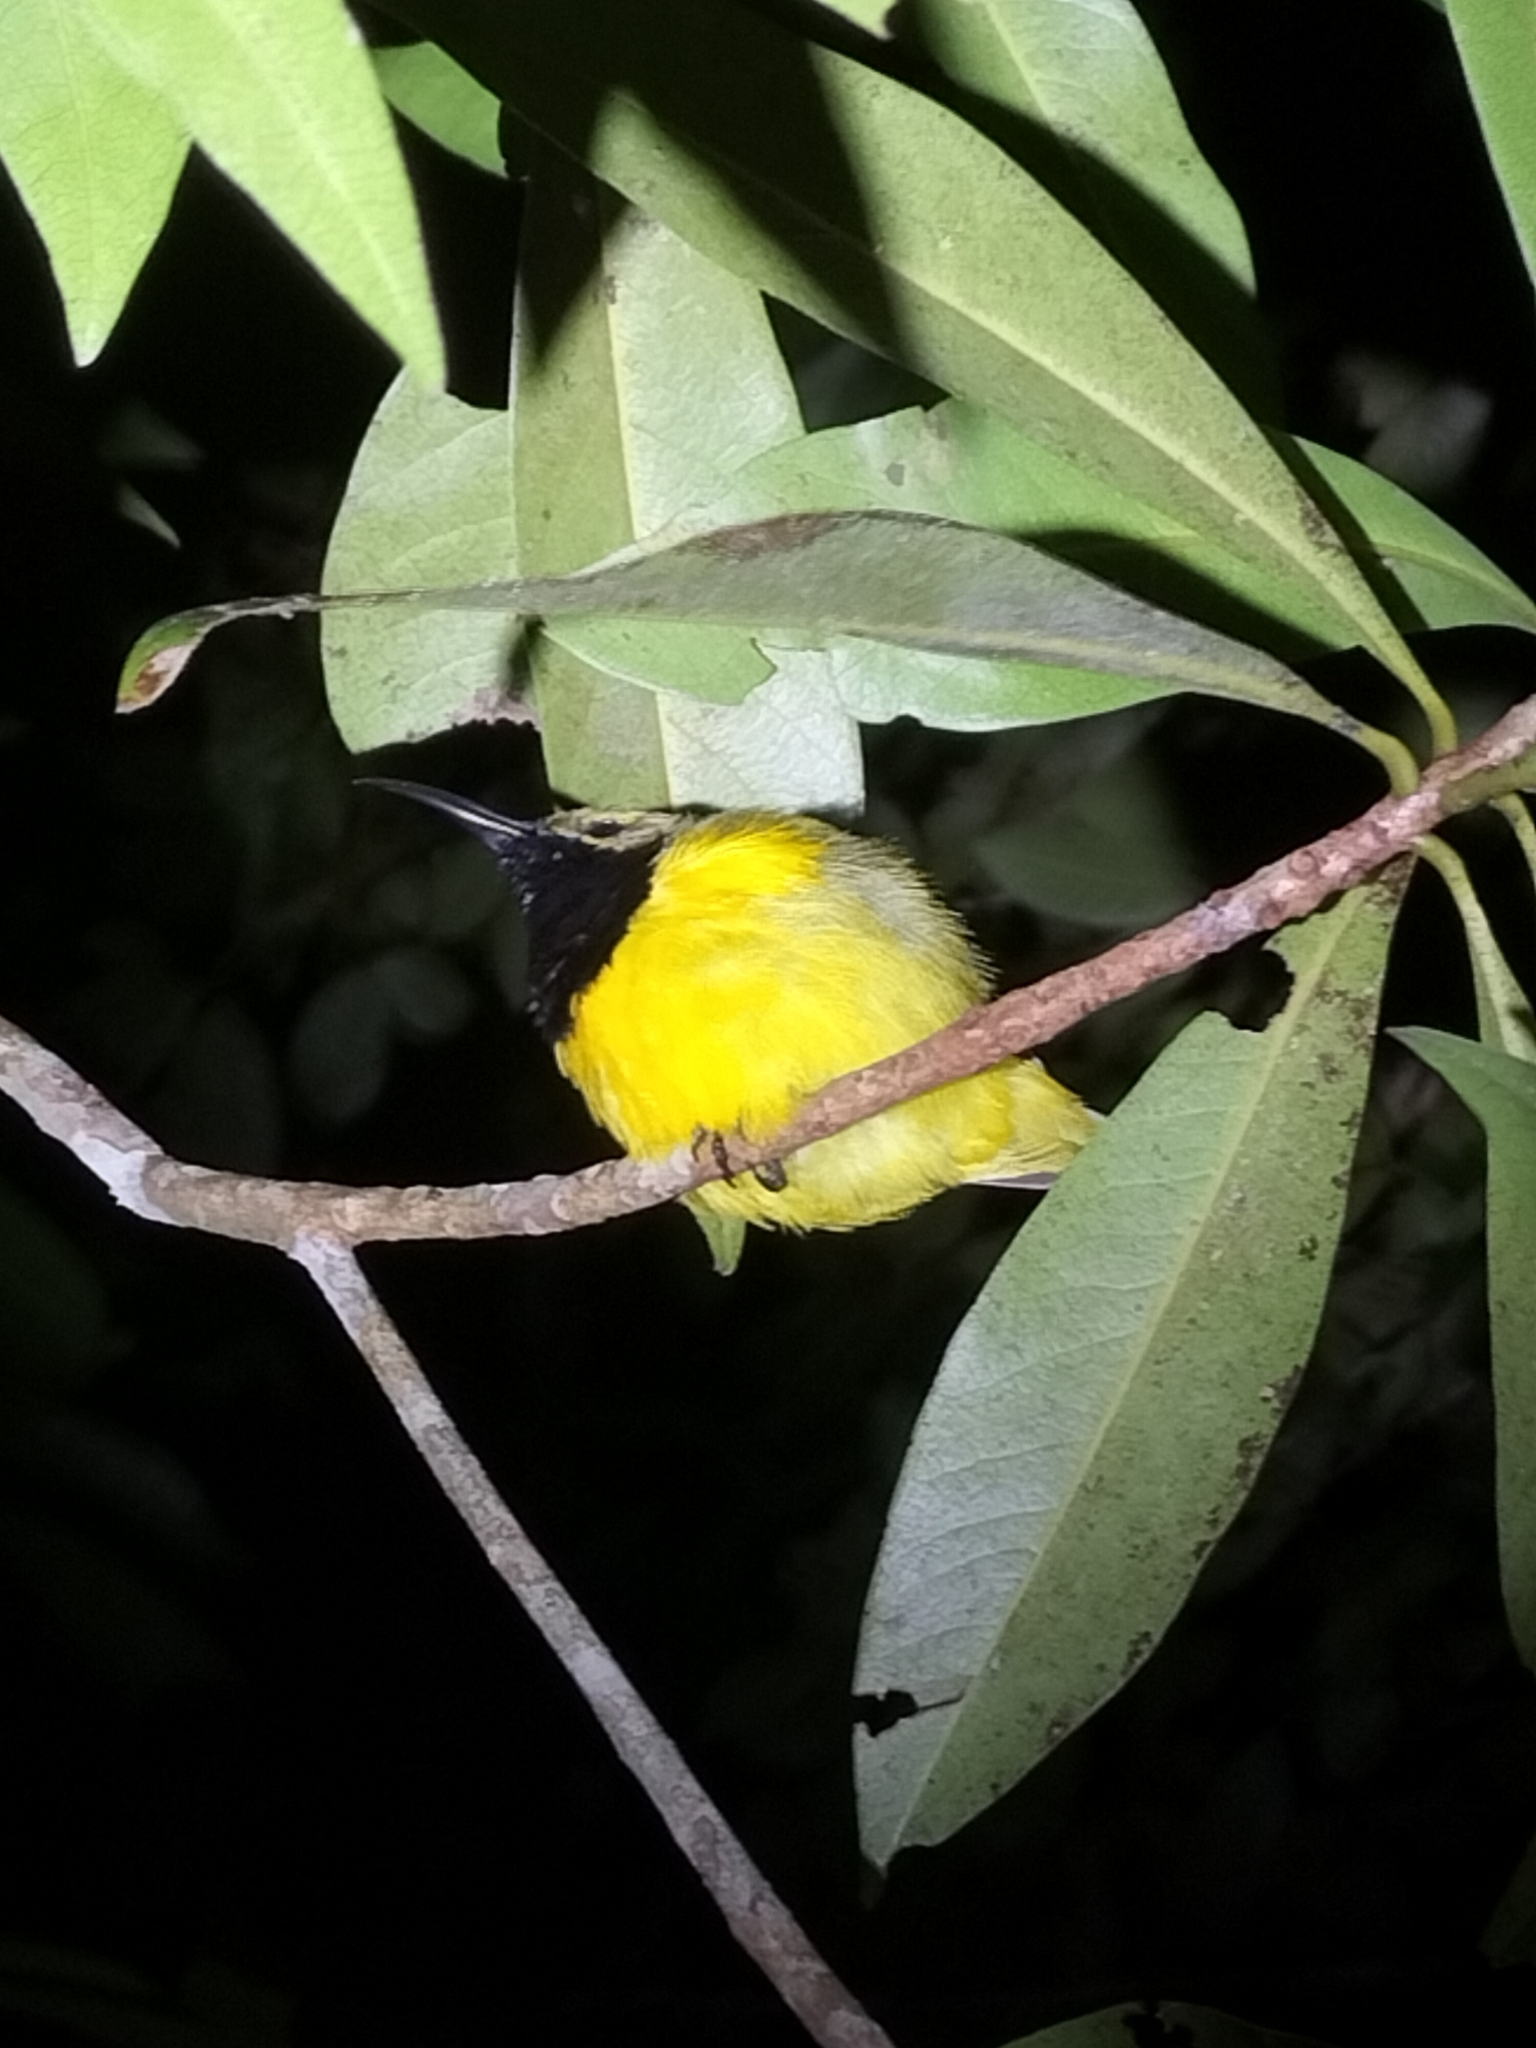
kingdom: Animalia
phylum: Chordata
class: Aves
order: Passeriformes
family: Nectariniidae
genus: Cinnyris
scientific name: Cinnyris
